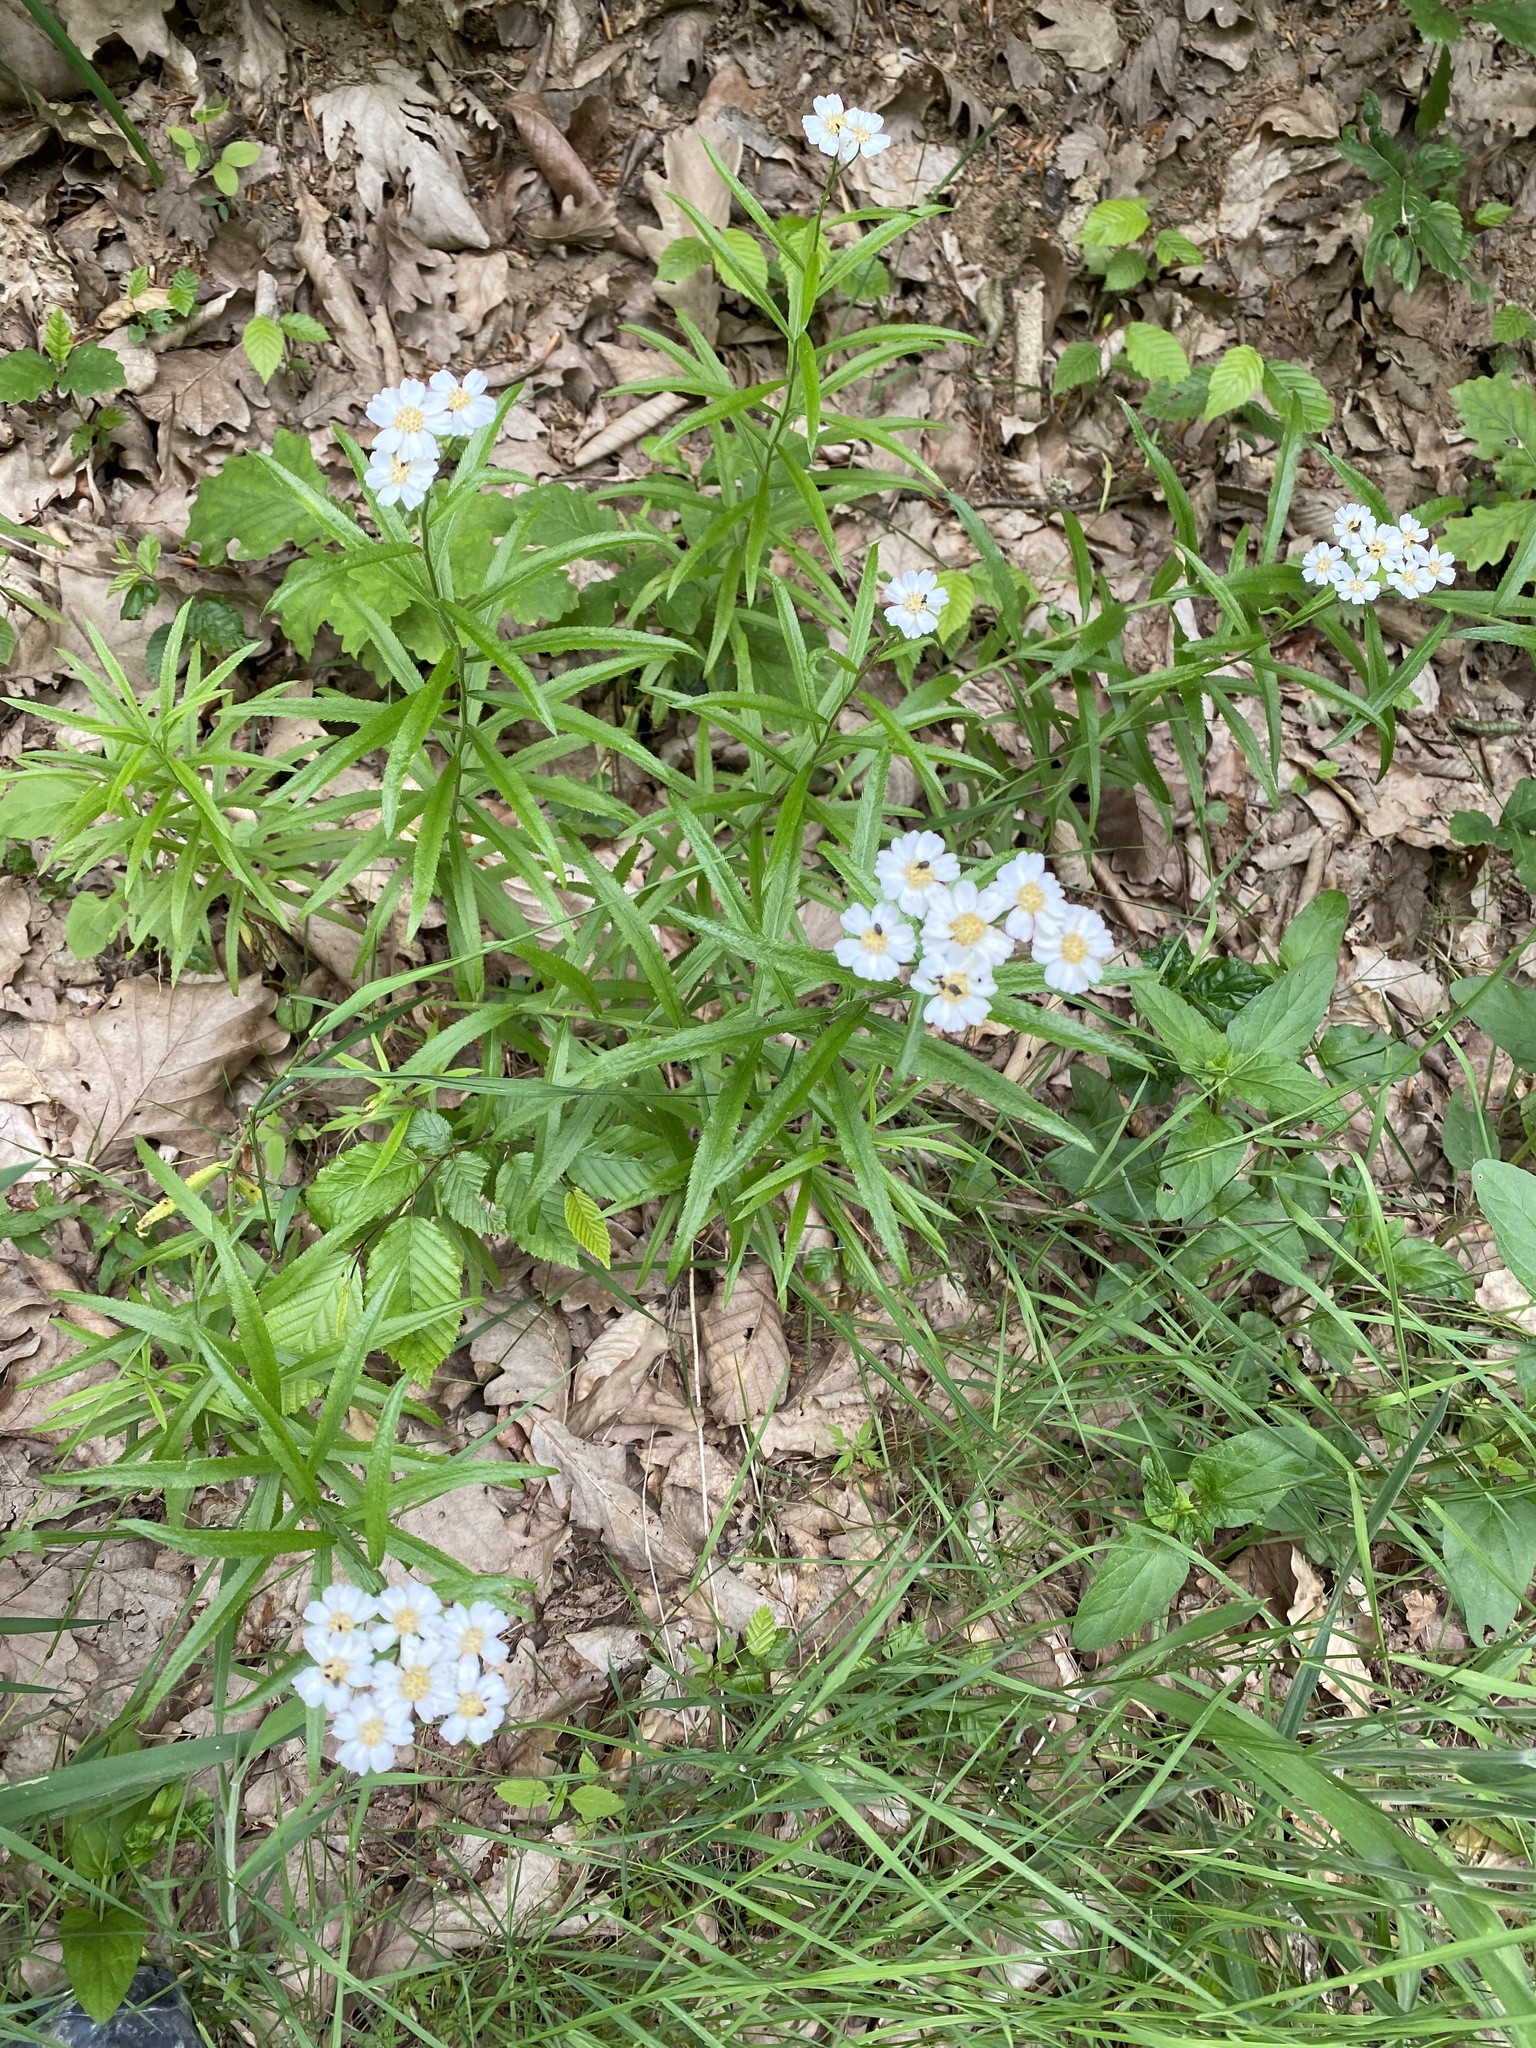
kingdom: Plantae
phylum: Tracheophyta
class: Magnoliopsida
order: Asterales
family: Asteraceae
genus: Achillea
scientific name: Achillea biserrata
